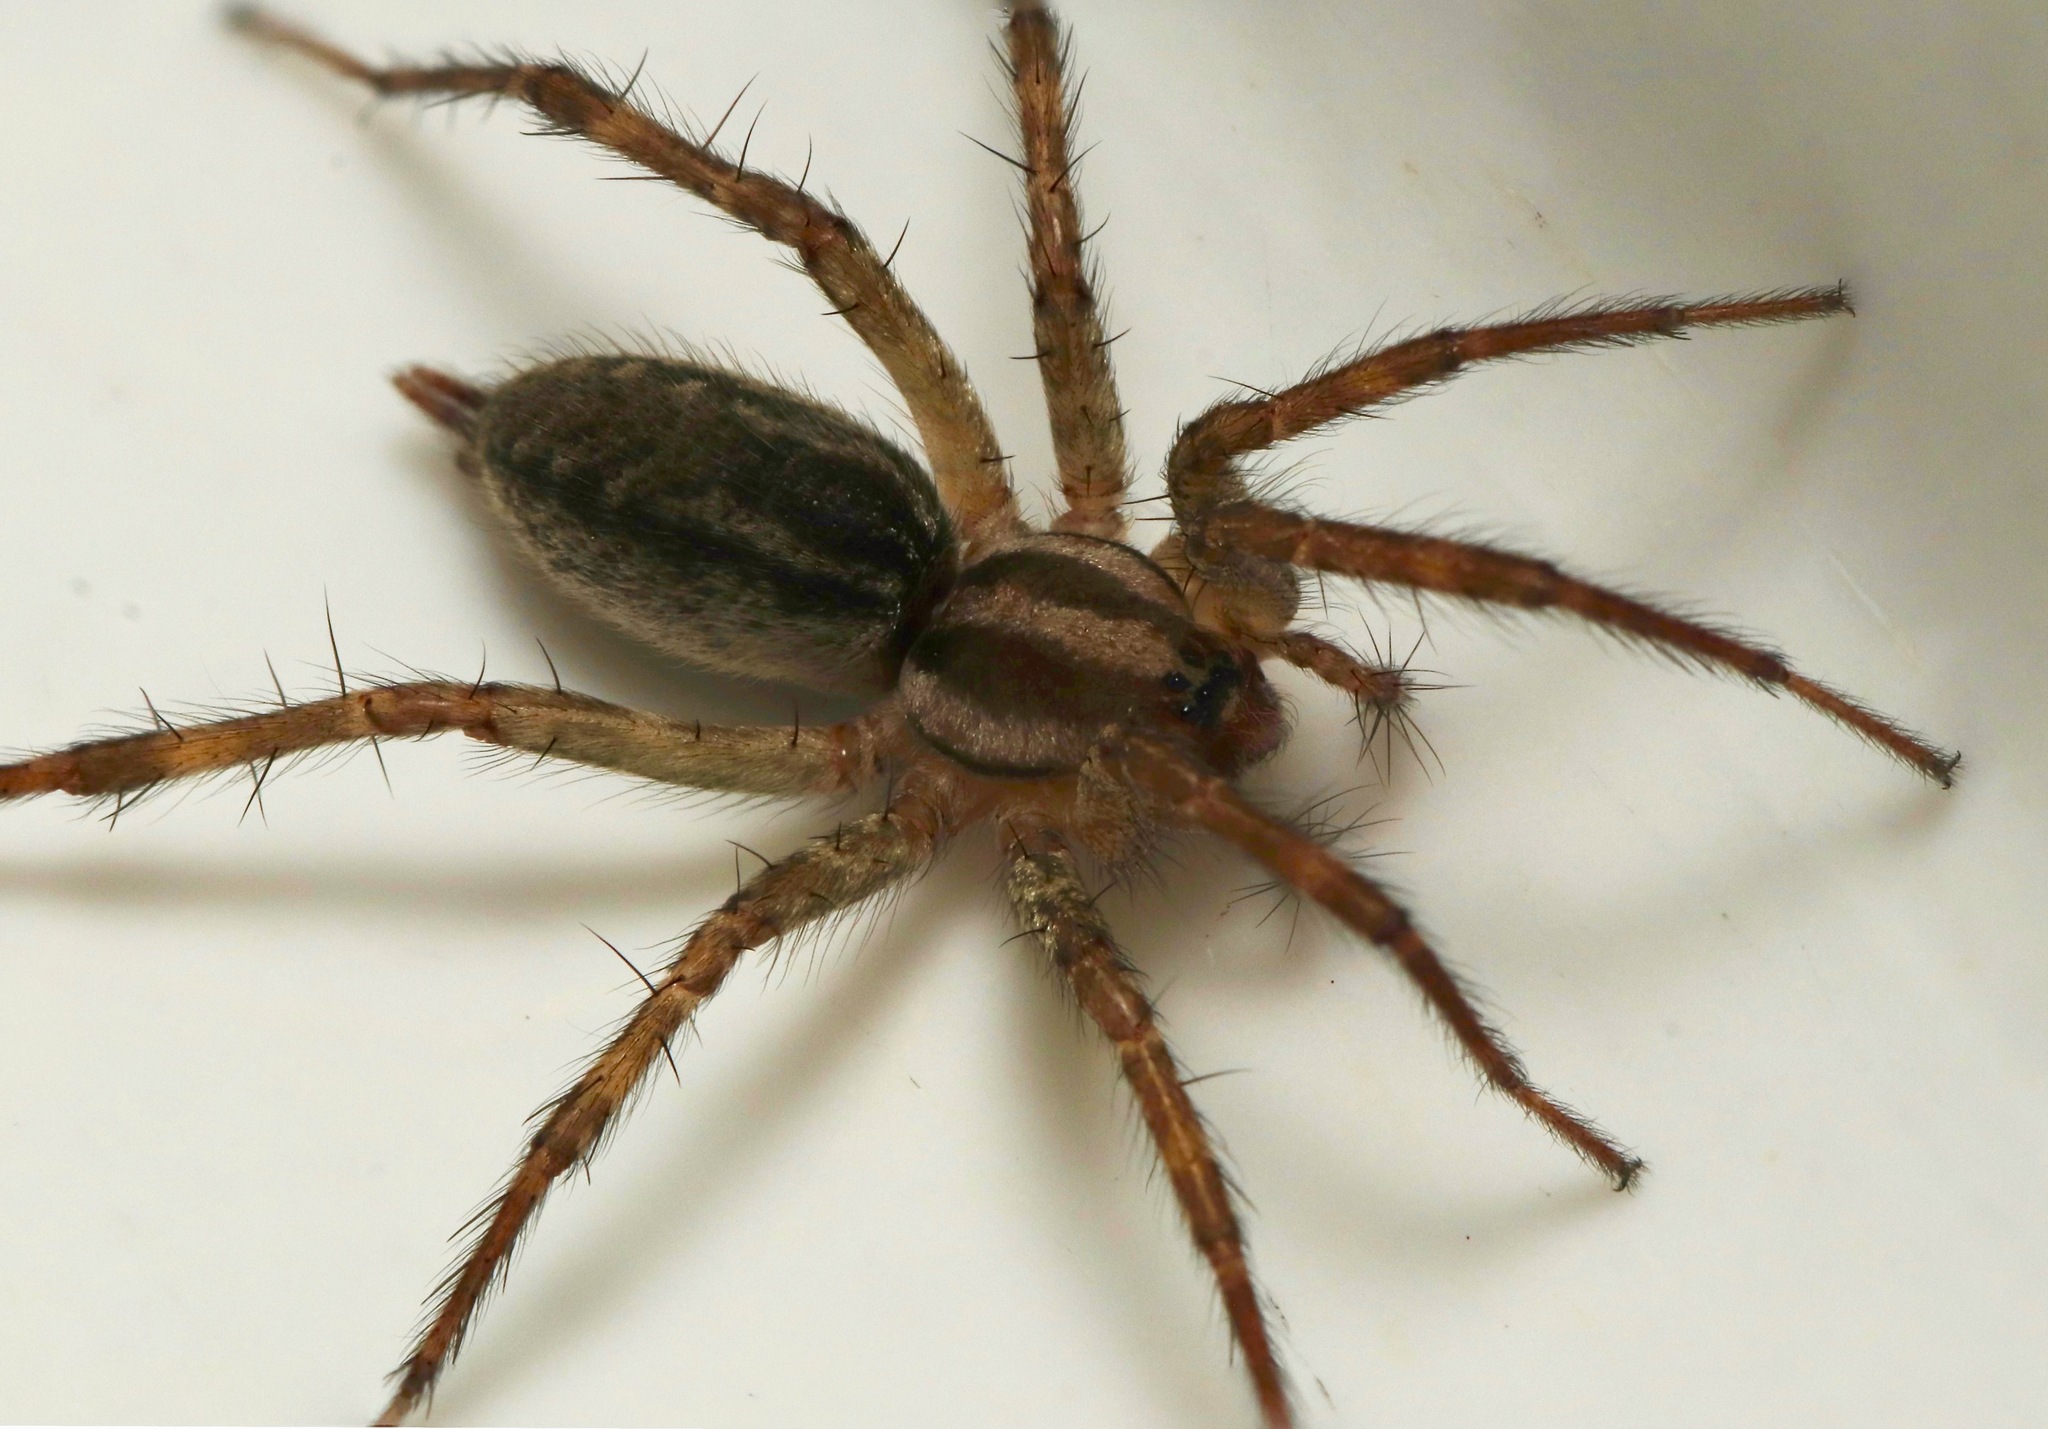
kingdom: Animalia
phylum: Arthropoda
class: Arachnida
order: Araneae
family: Agelenidae
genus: Agelenopsis
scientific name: Agelenopsis
